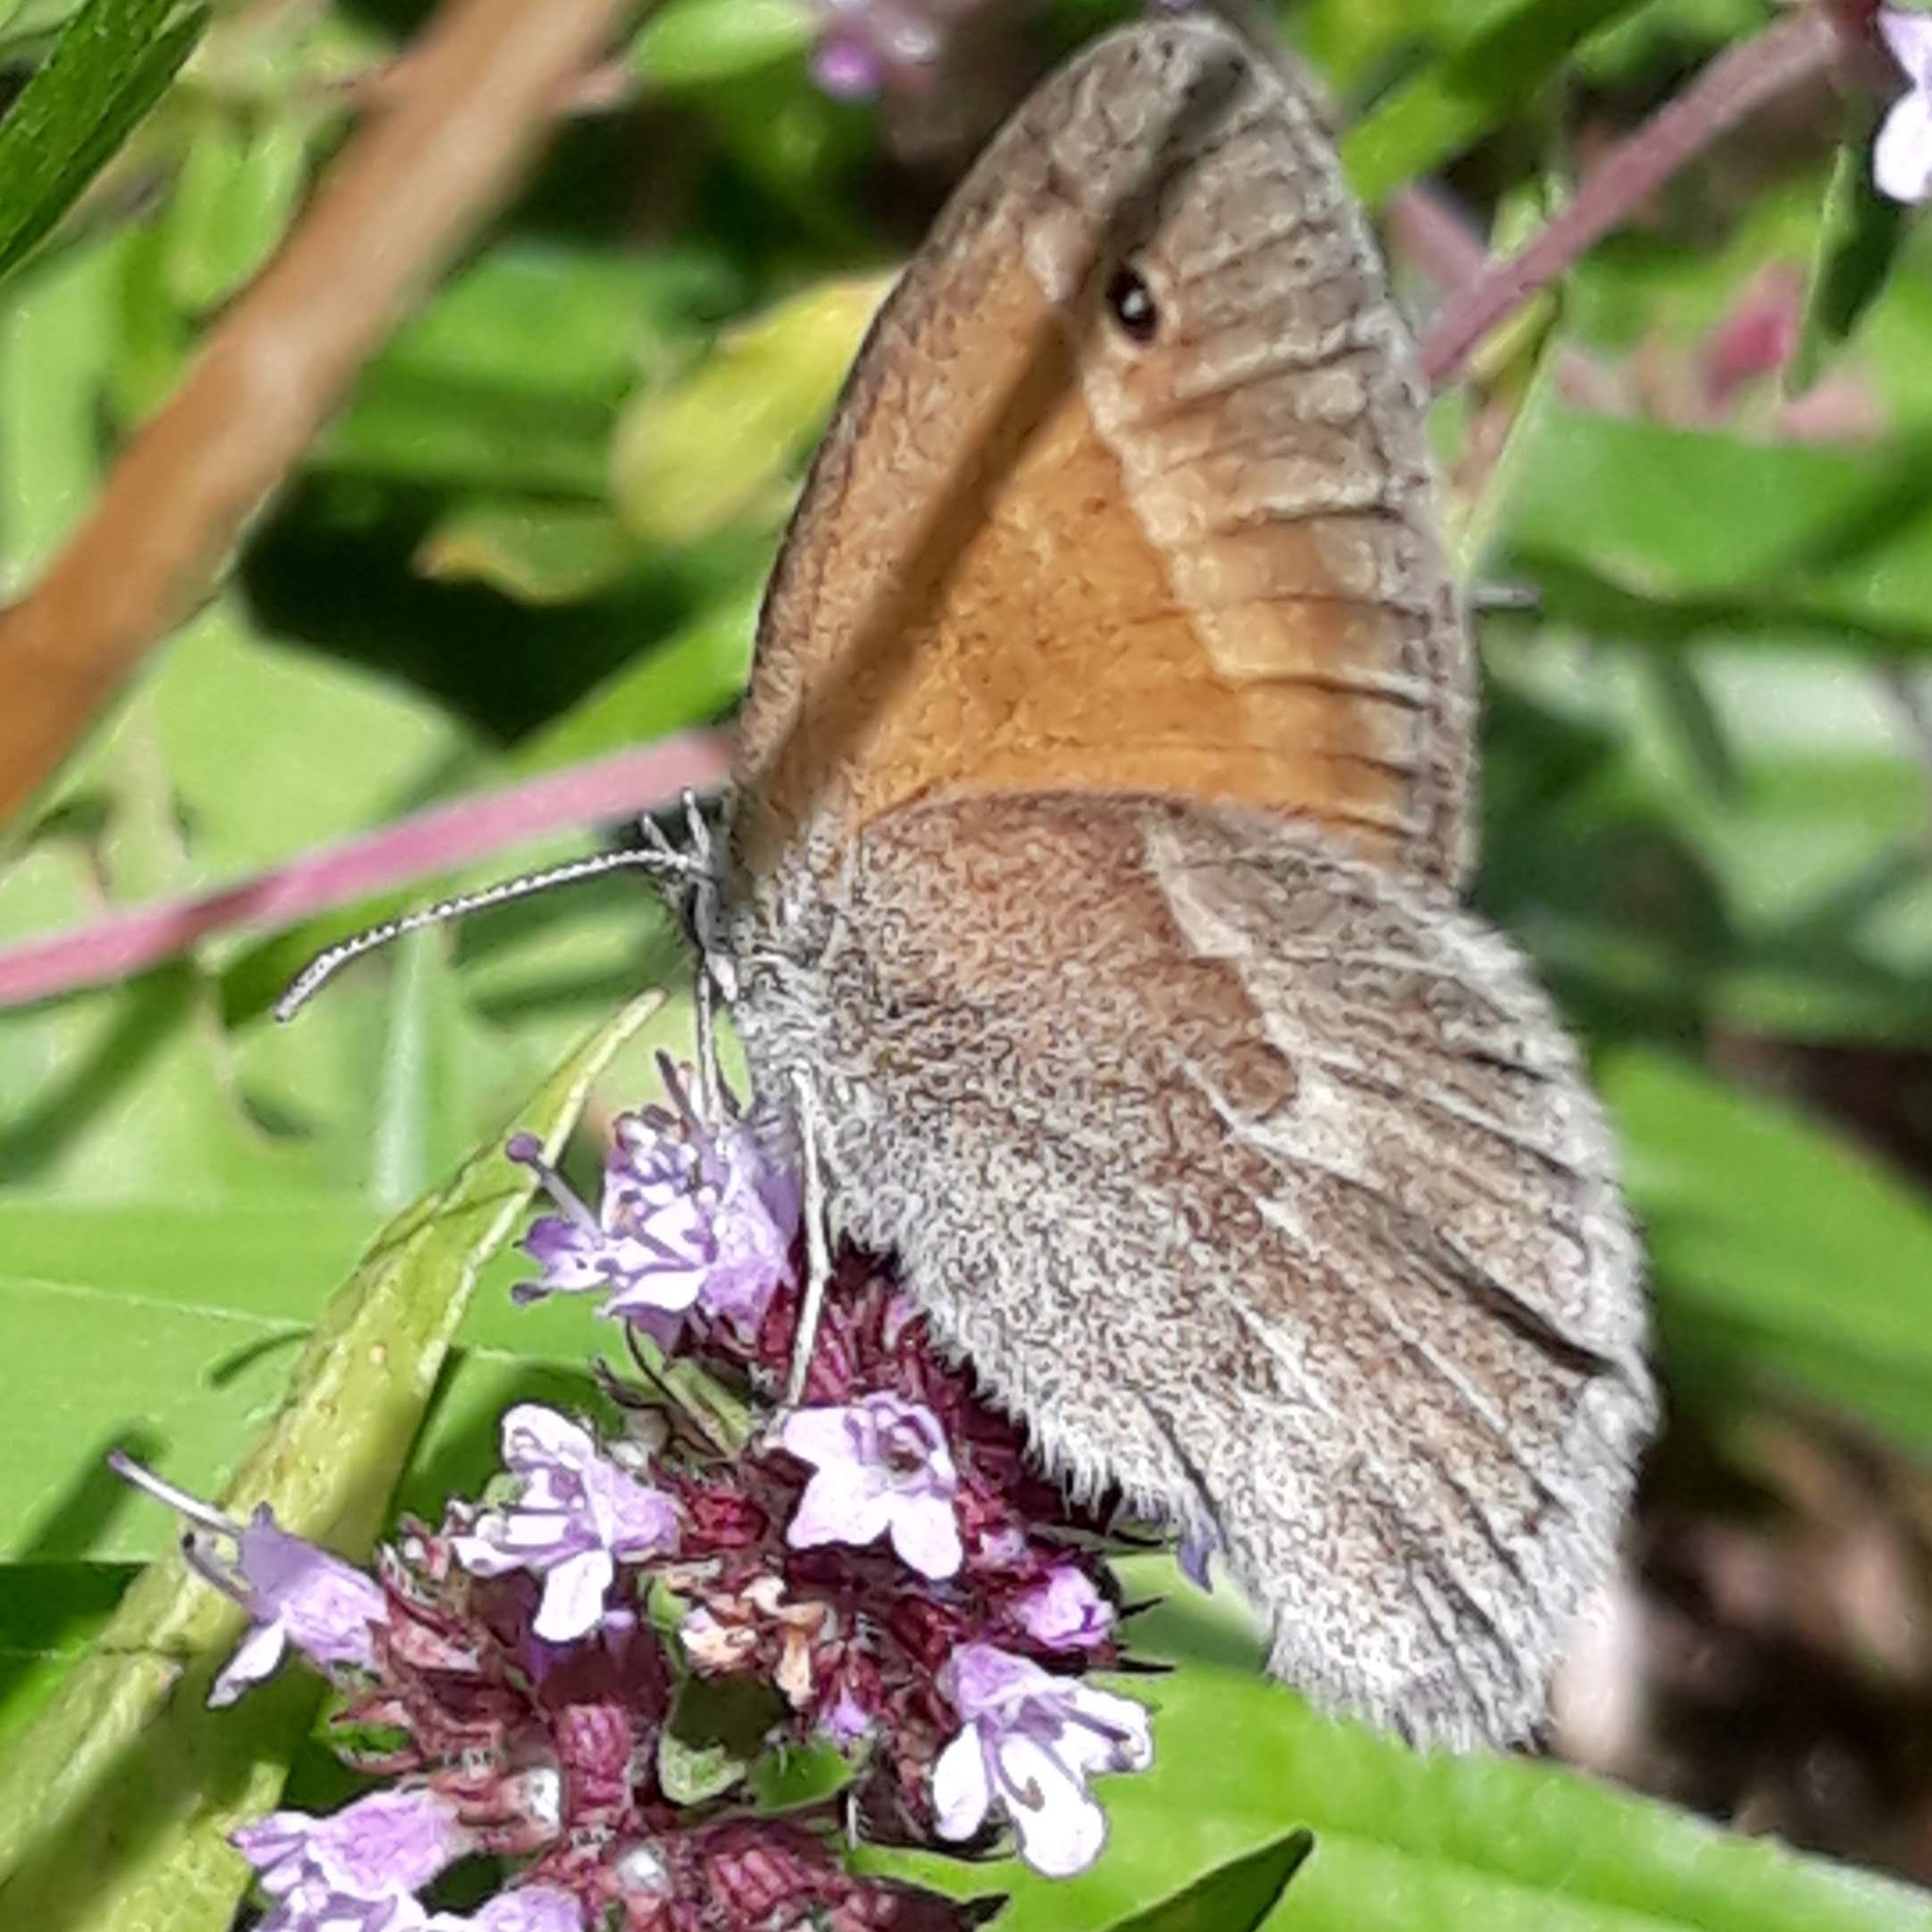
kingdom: Animalia
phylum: Arthropoda
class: Insecta
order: Lepidoptera
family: Nymphalidae
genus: Coenonympha
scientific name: Coenonympha california
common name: Common ringlet
